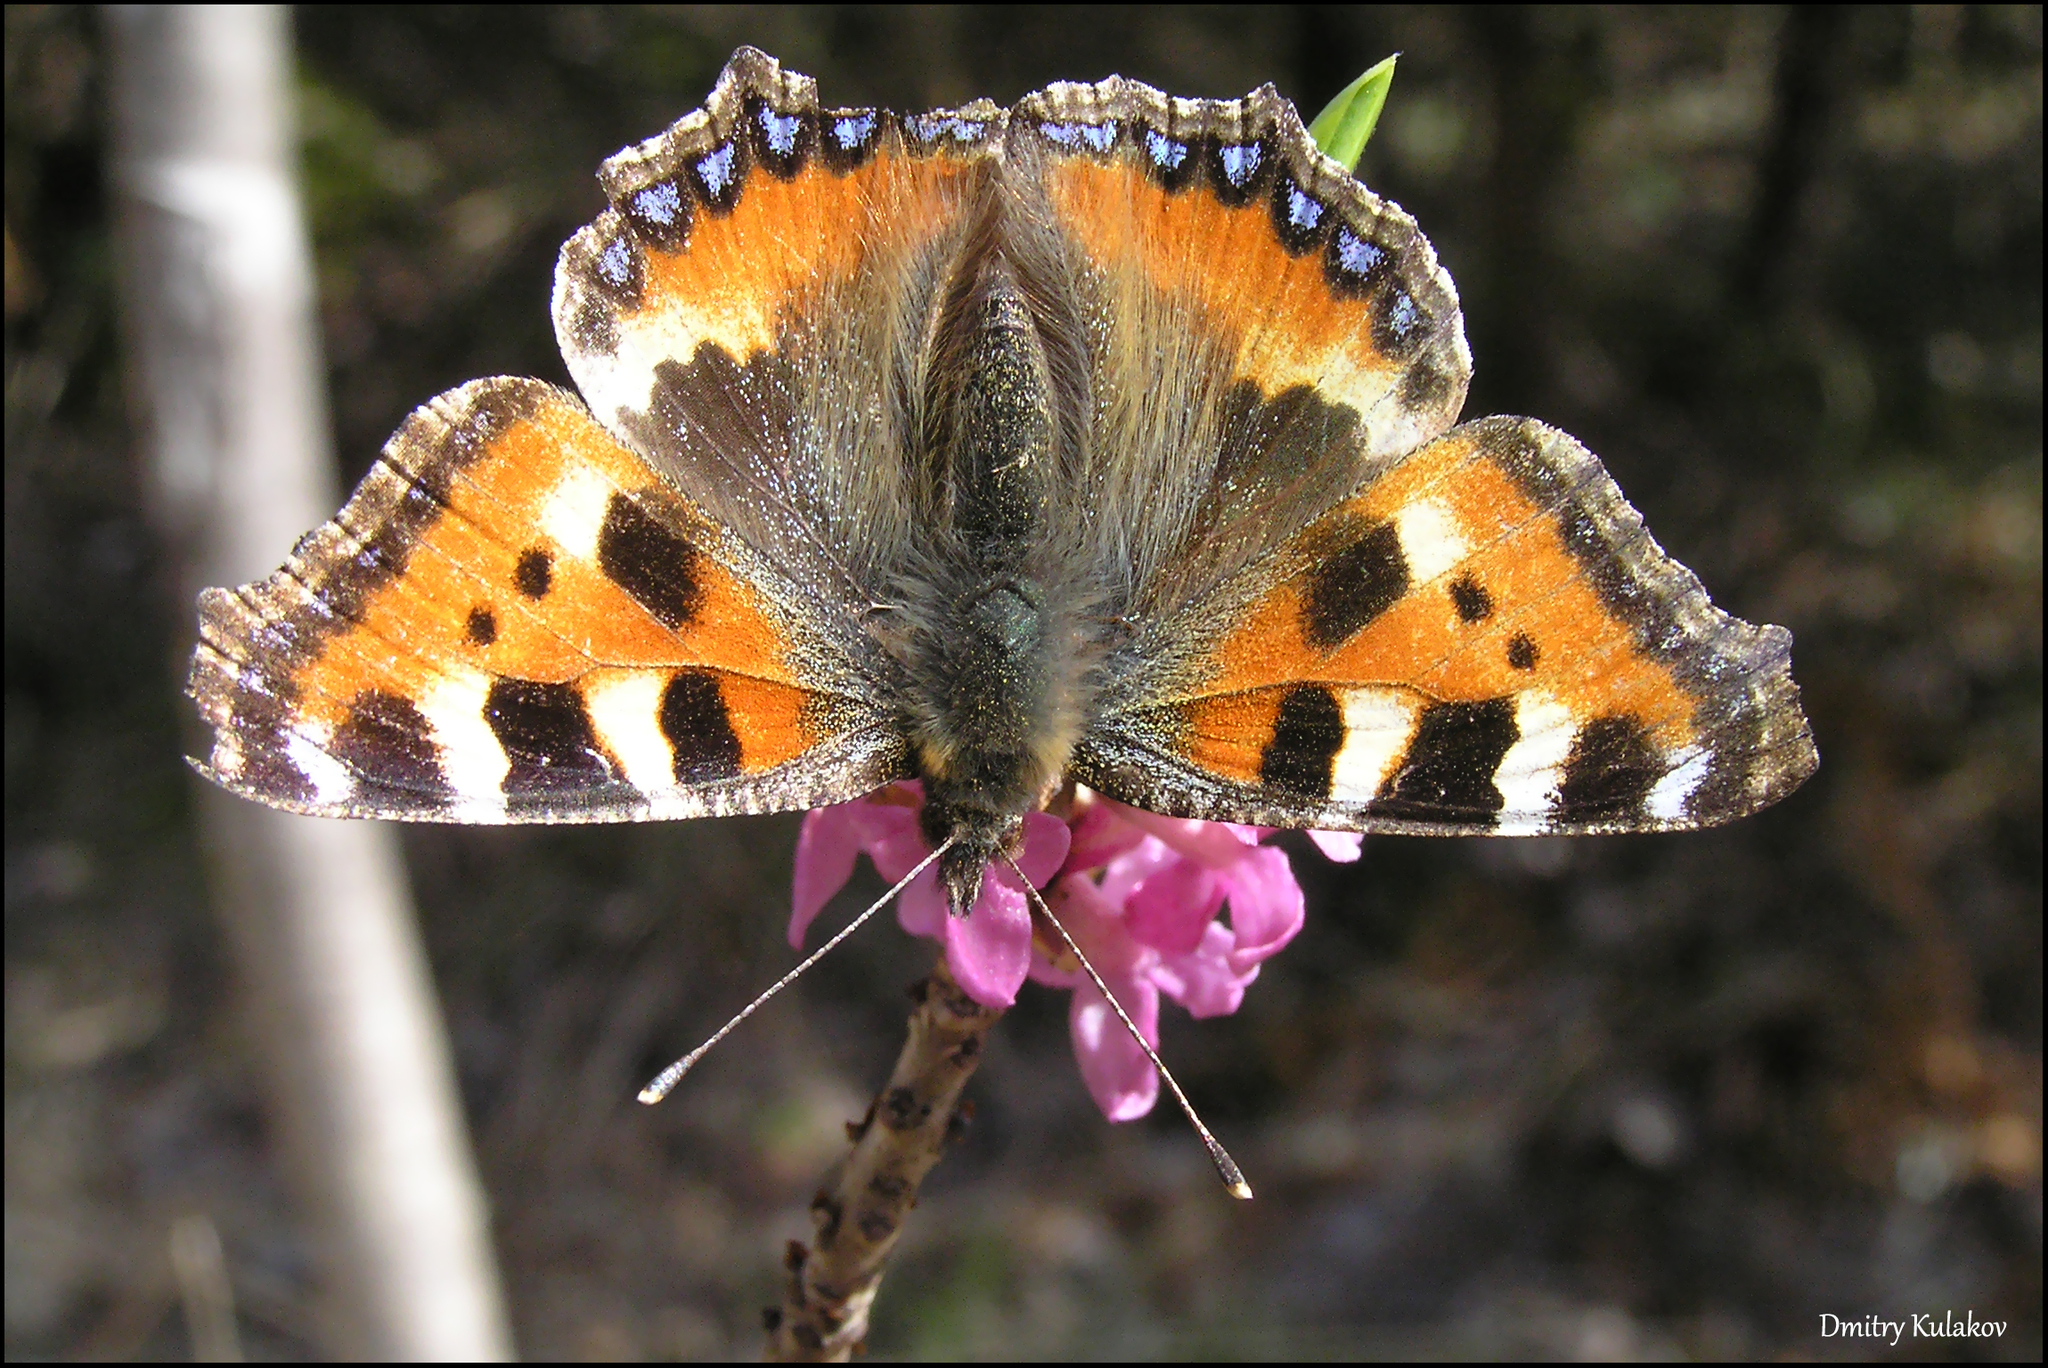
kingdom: Animalia
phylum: Arthropoda
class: Insecta
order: Lepidoptera
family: Nymphalidae
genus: Aglais
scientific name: Aglais urticae
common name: Small tortoiseshell
